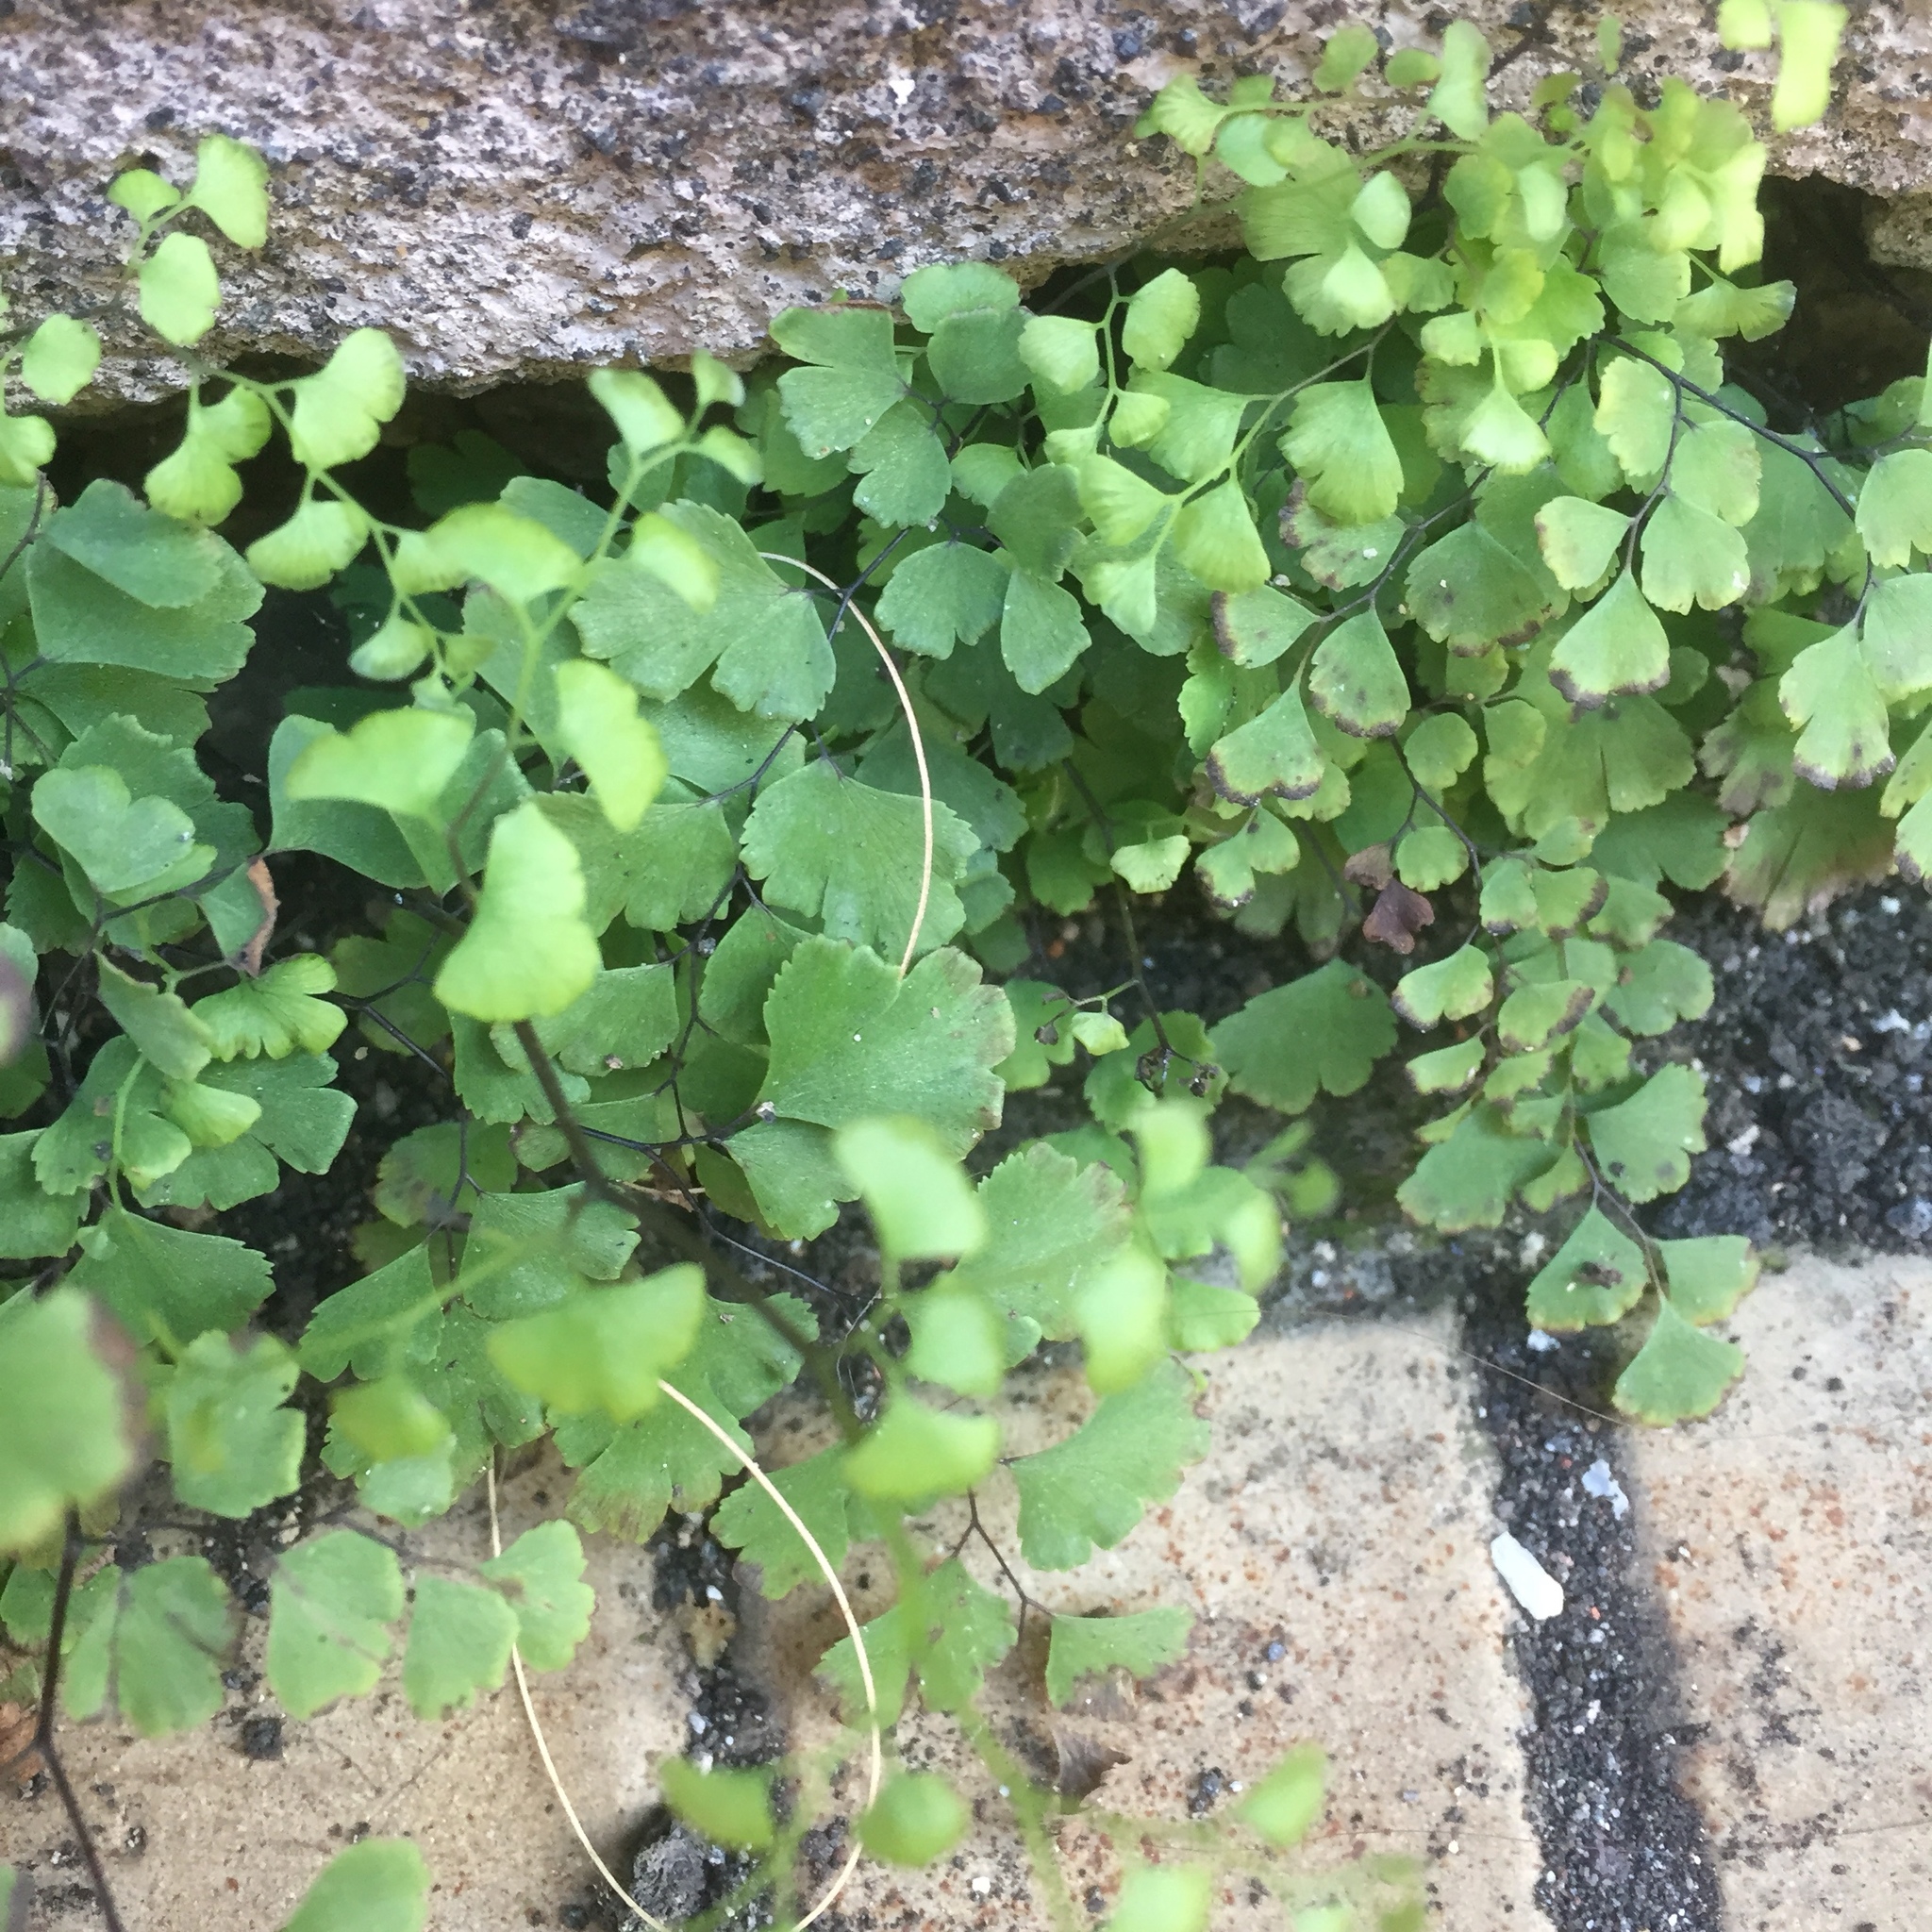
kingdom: Plantae
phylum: Tracheophyta
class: Polypodiopsida
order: Polypodiales
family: Pteridaceae
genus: Adiantum
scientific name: Adiantum capillus-veneris
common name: Maidenhair fern
